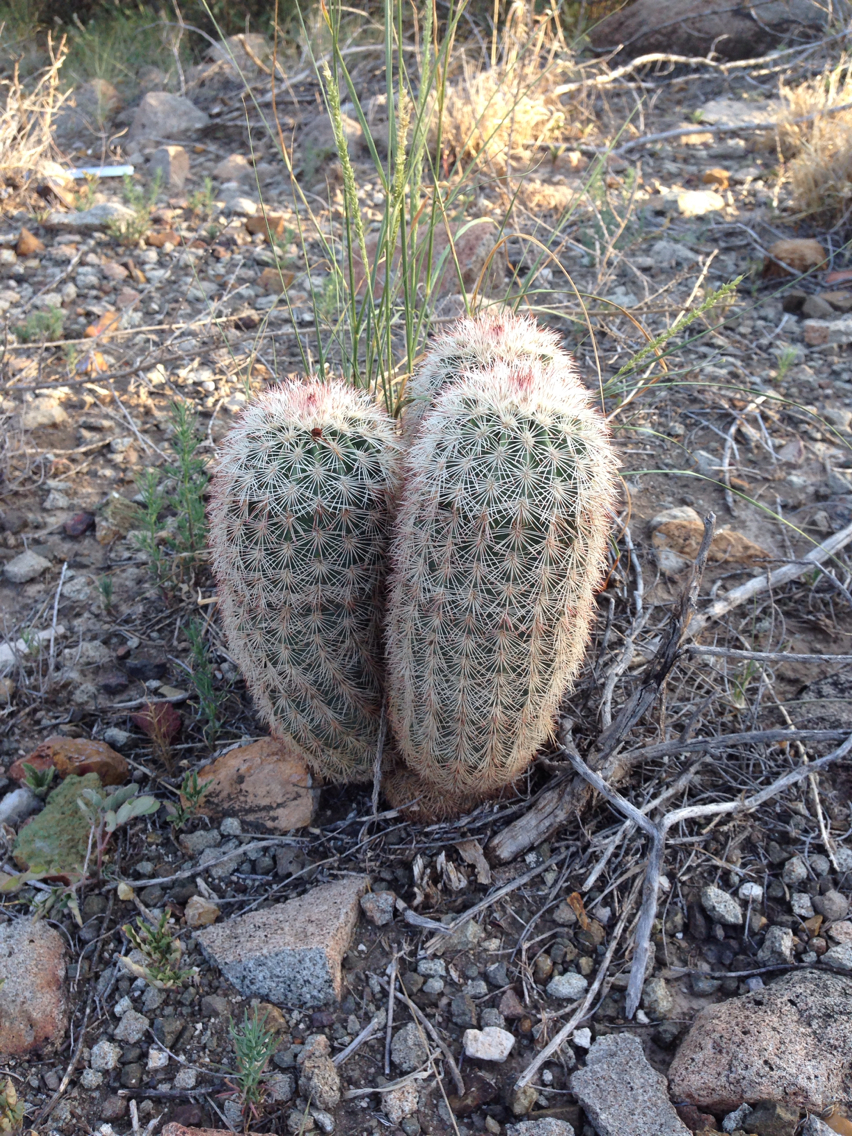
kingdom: Plantae
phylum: Tracheophyta
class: Magnoliopsida
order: Caryophyllales
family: Cactaceae
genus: Echinocereus
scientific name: Echinocereus dasyacanthus
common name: Spiny hedgehog cactus
